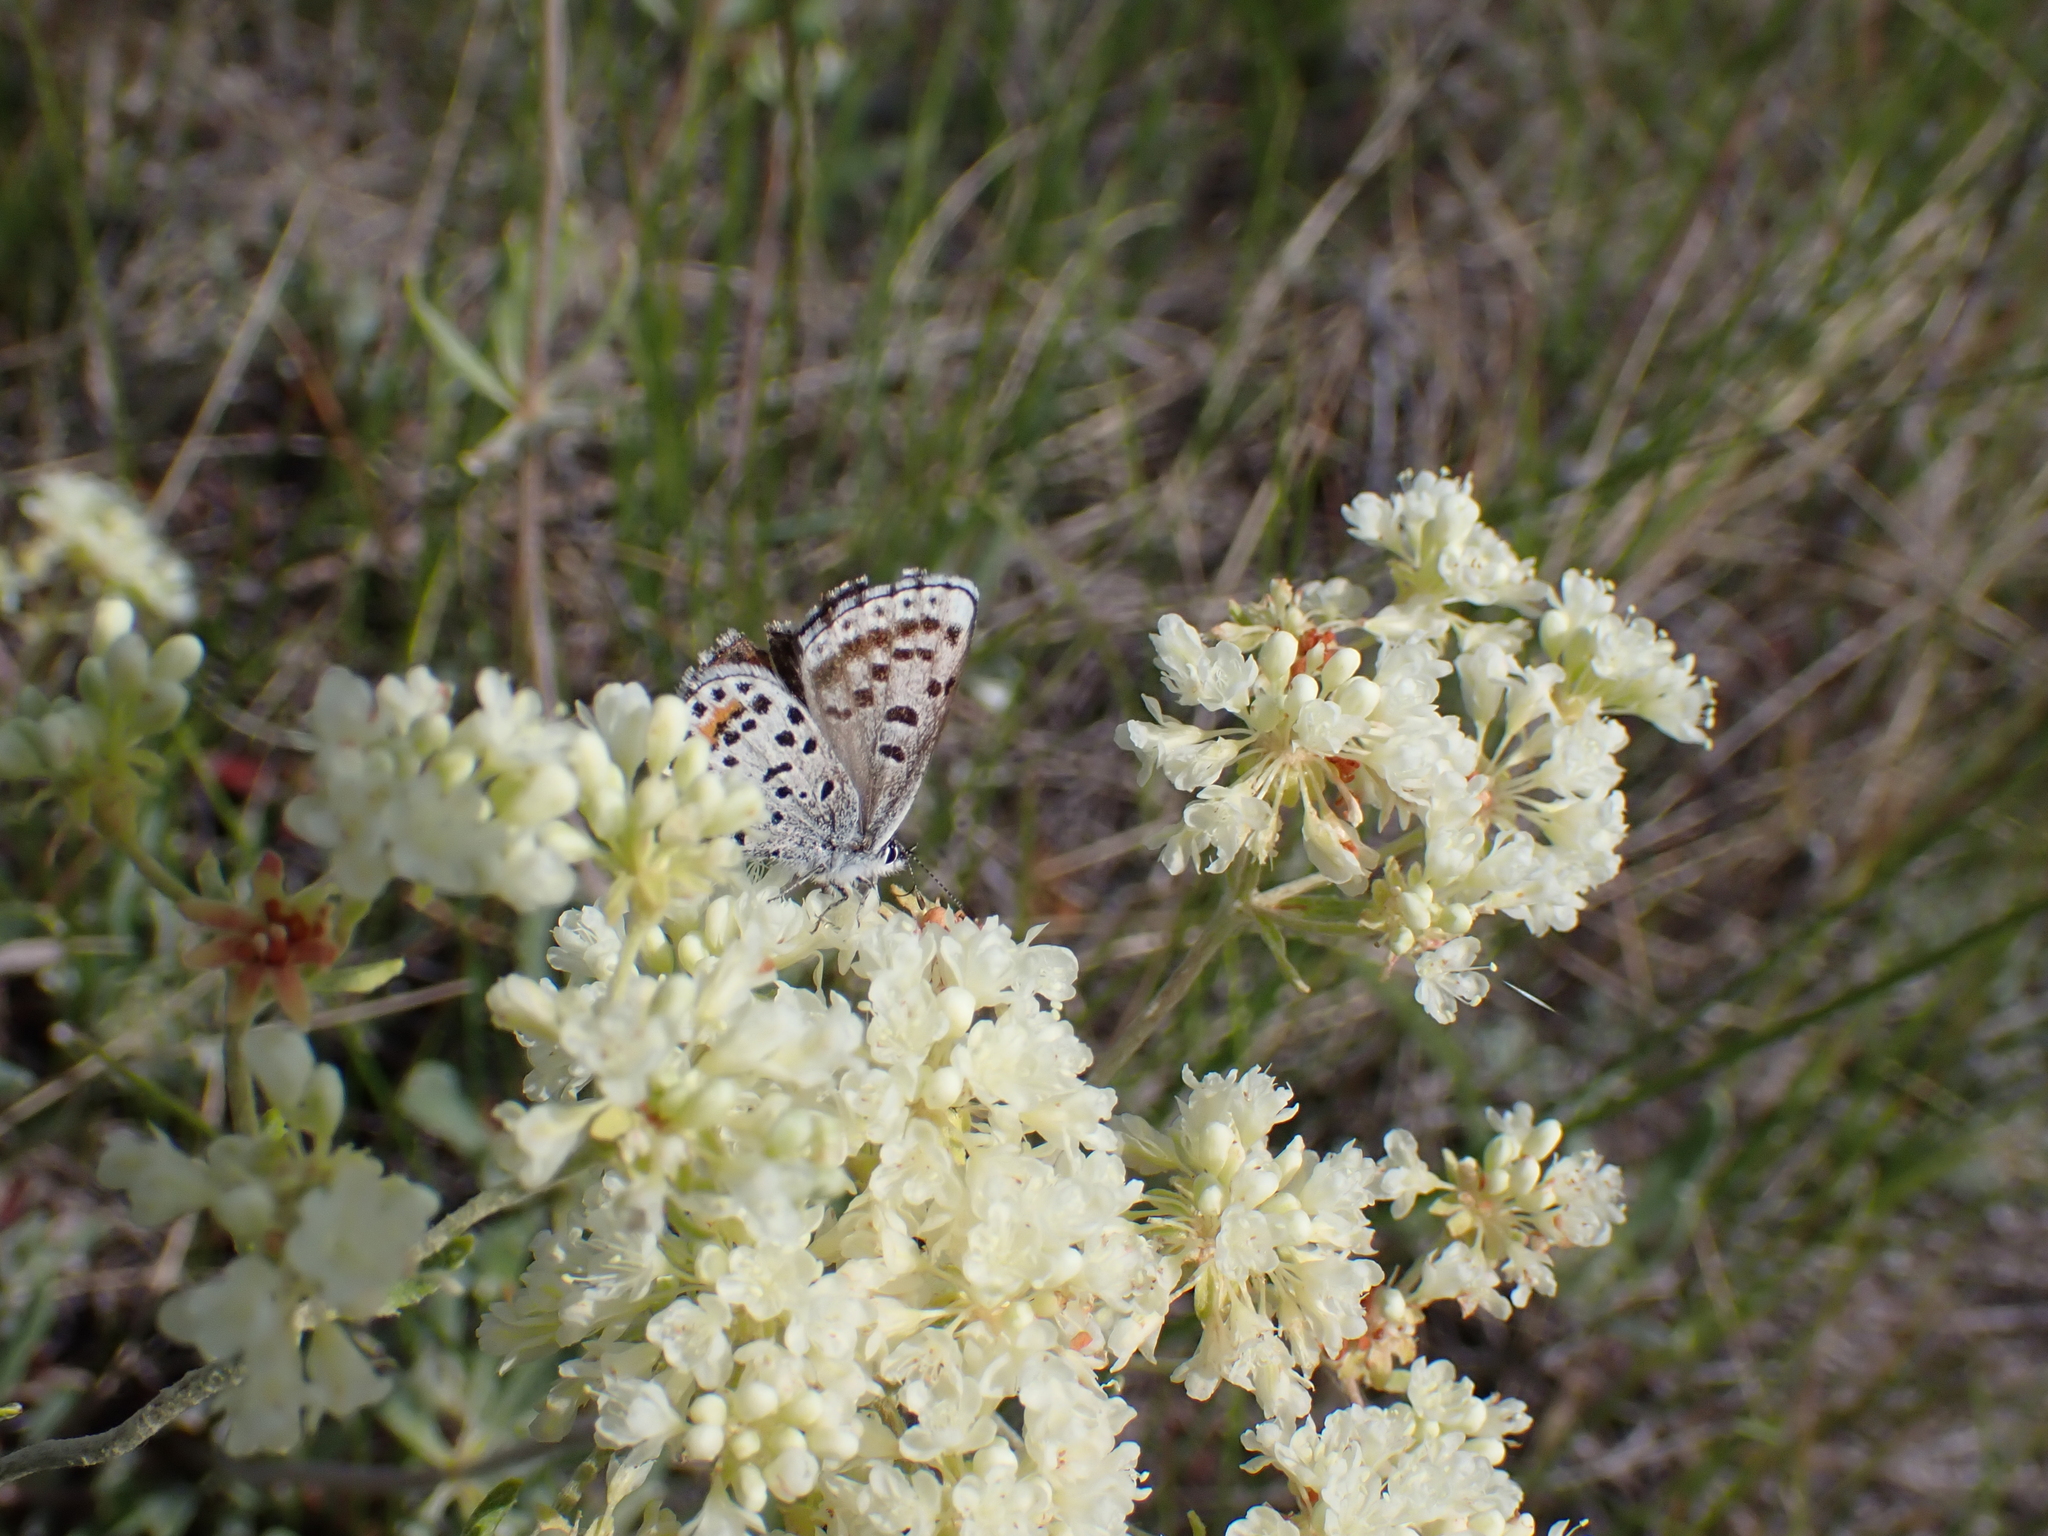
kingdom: Animalia
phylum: Arthropoda
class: Insecta
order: Lepidoptera
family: Lycaenidae
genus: Euphilotes
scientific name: Euphilotes
